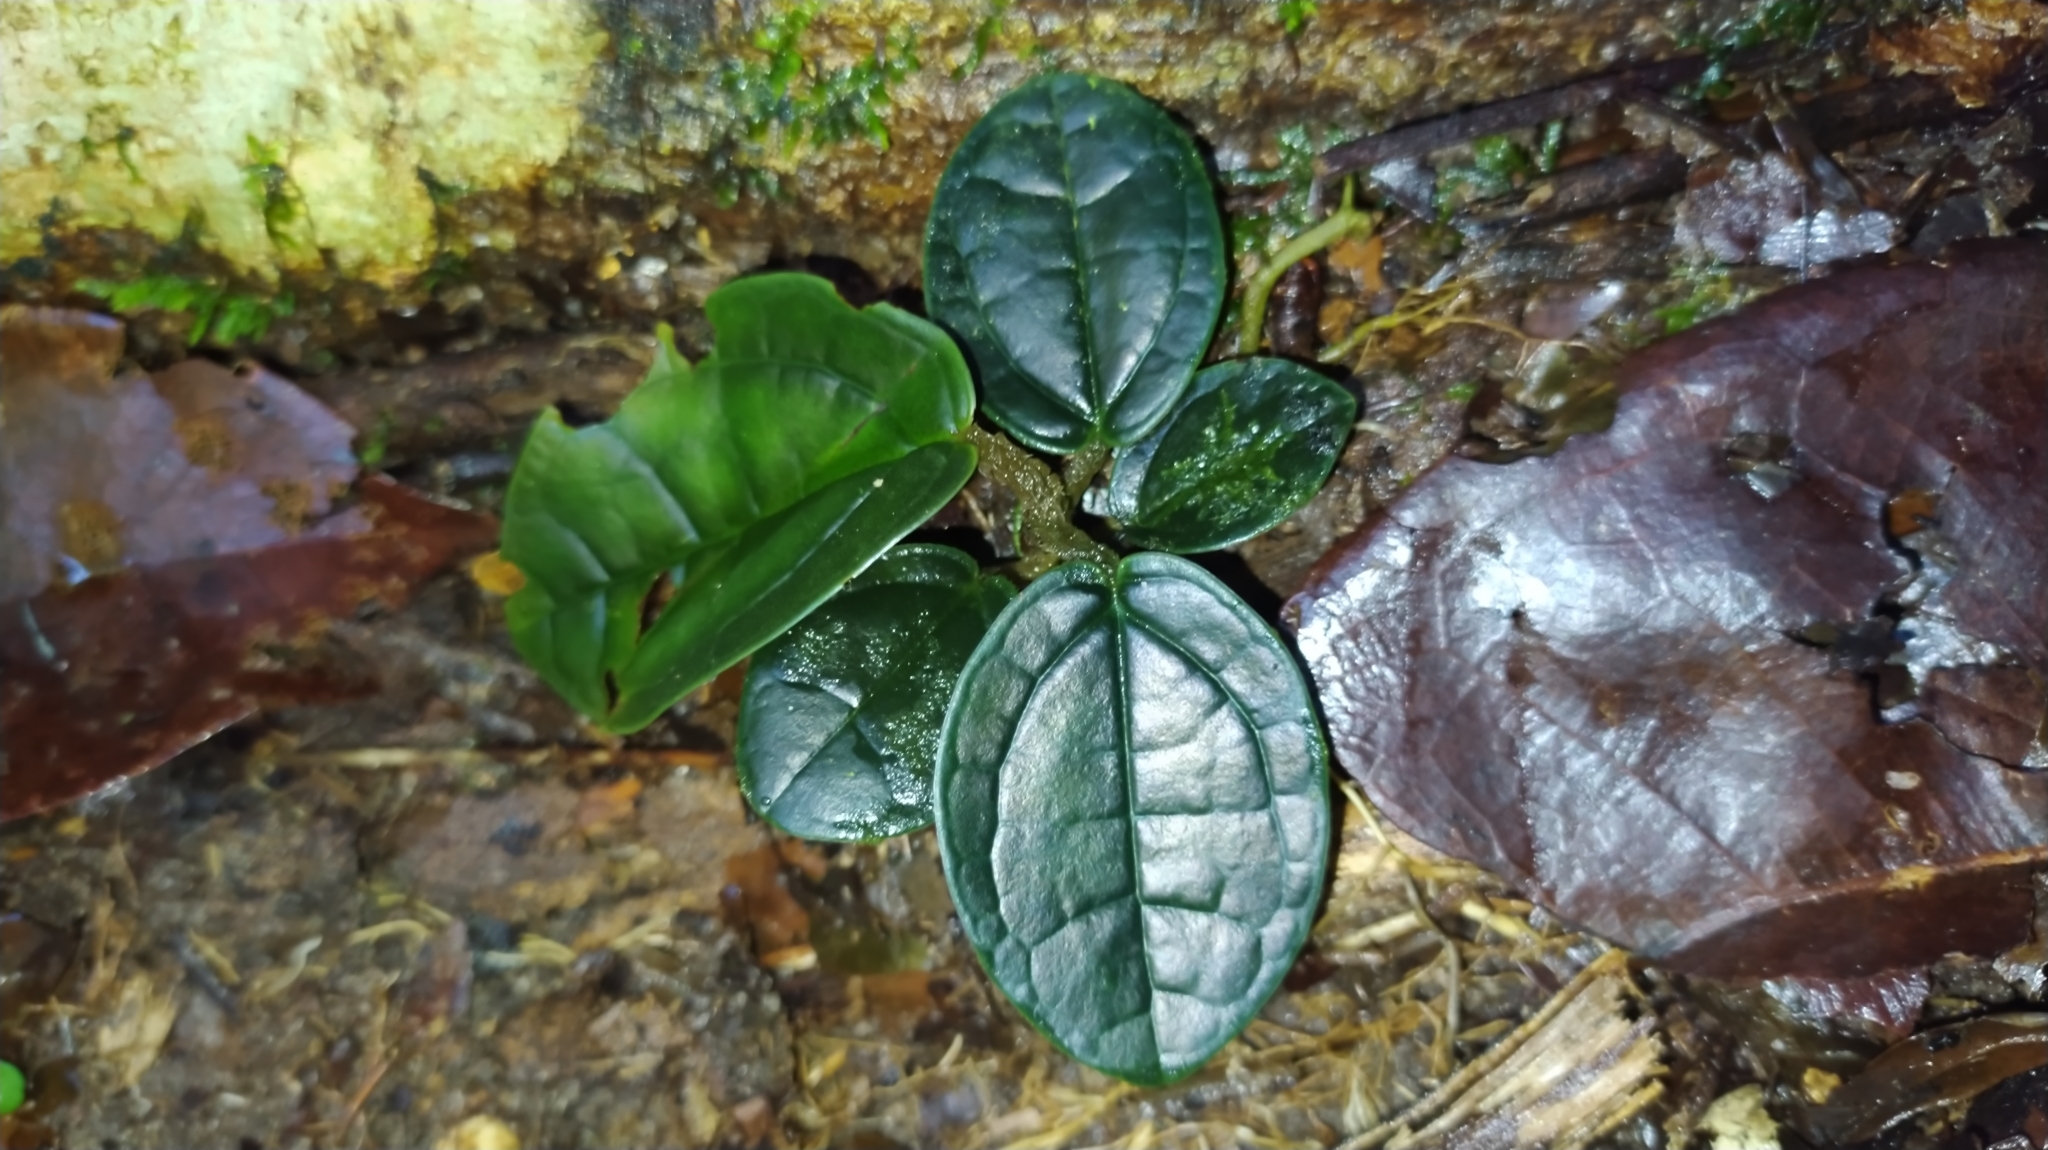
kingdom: Plantae
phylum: Tracheophyta
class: Magnoliopsida
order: Piperales
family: Piperaceae
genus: Piper
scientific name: Piper humistratum
